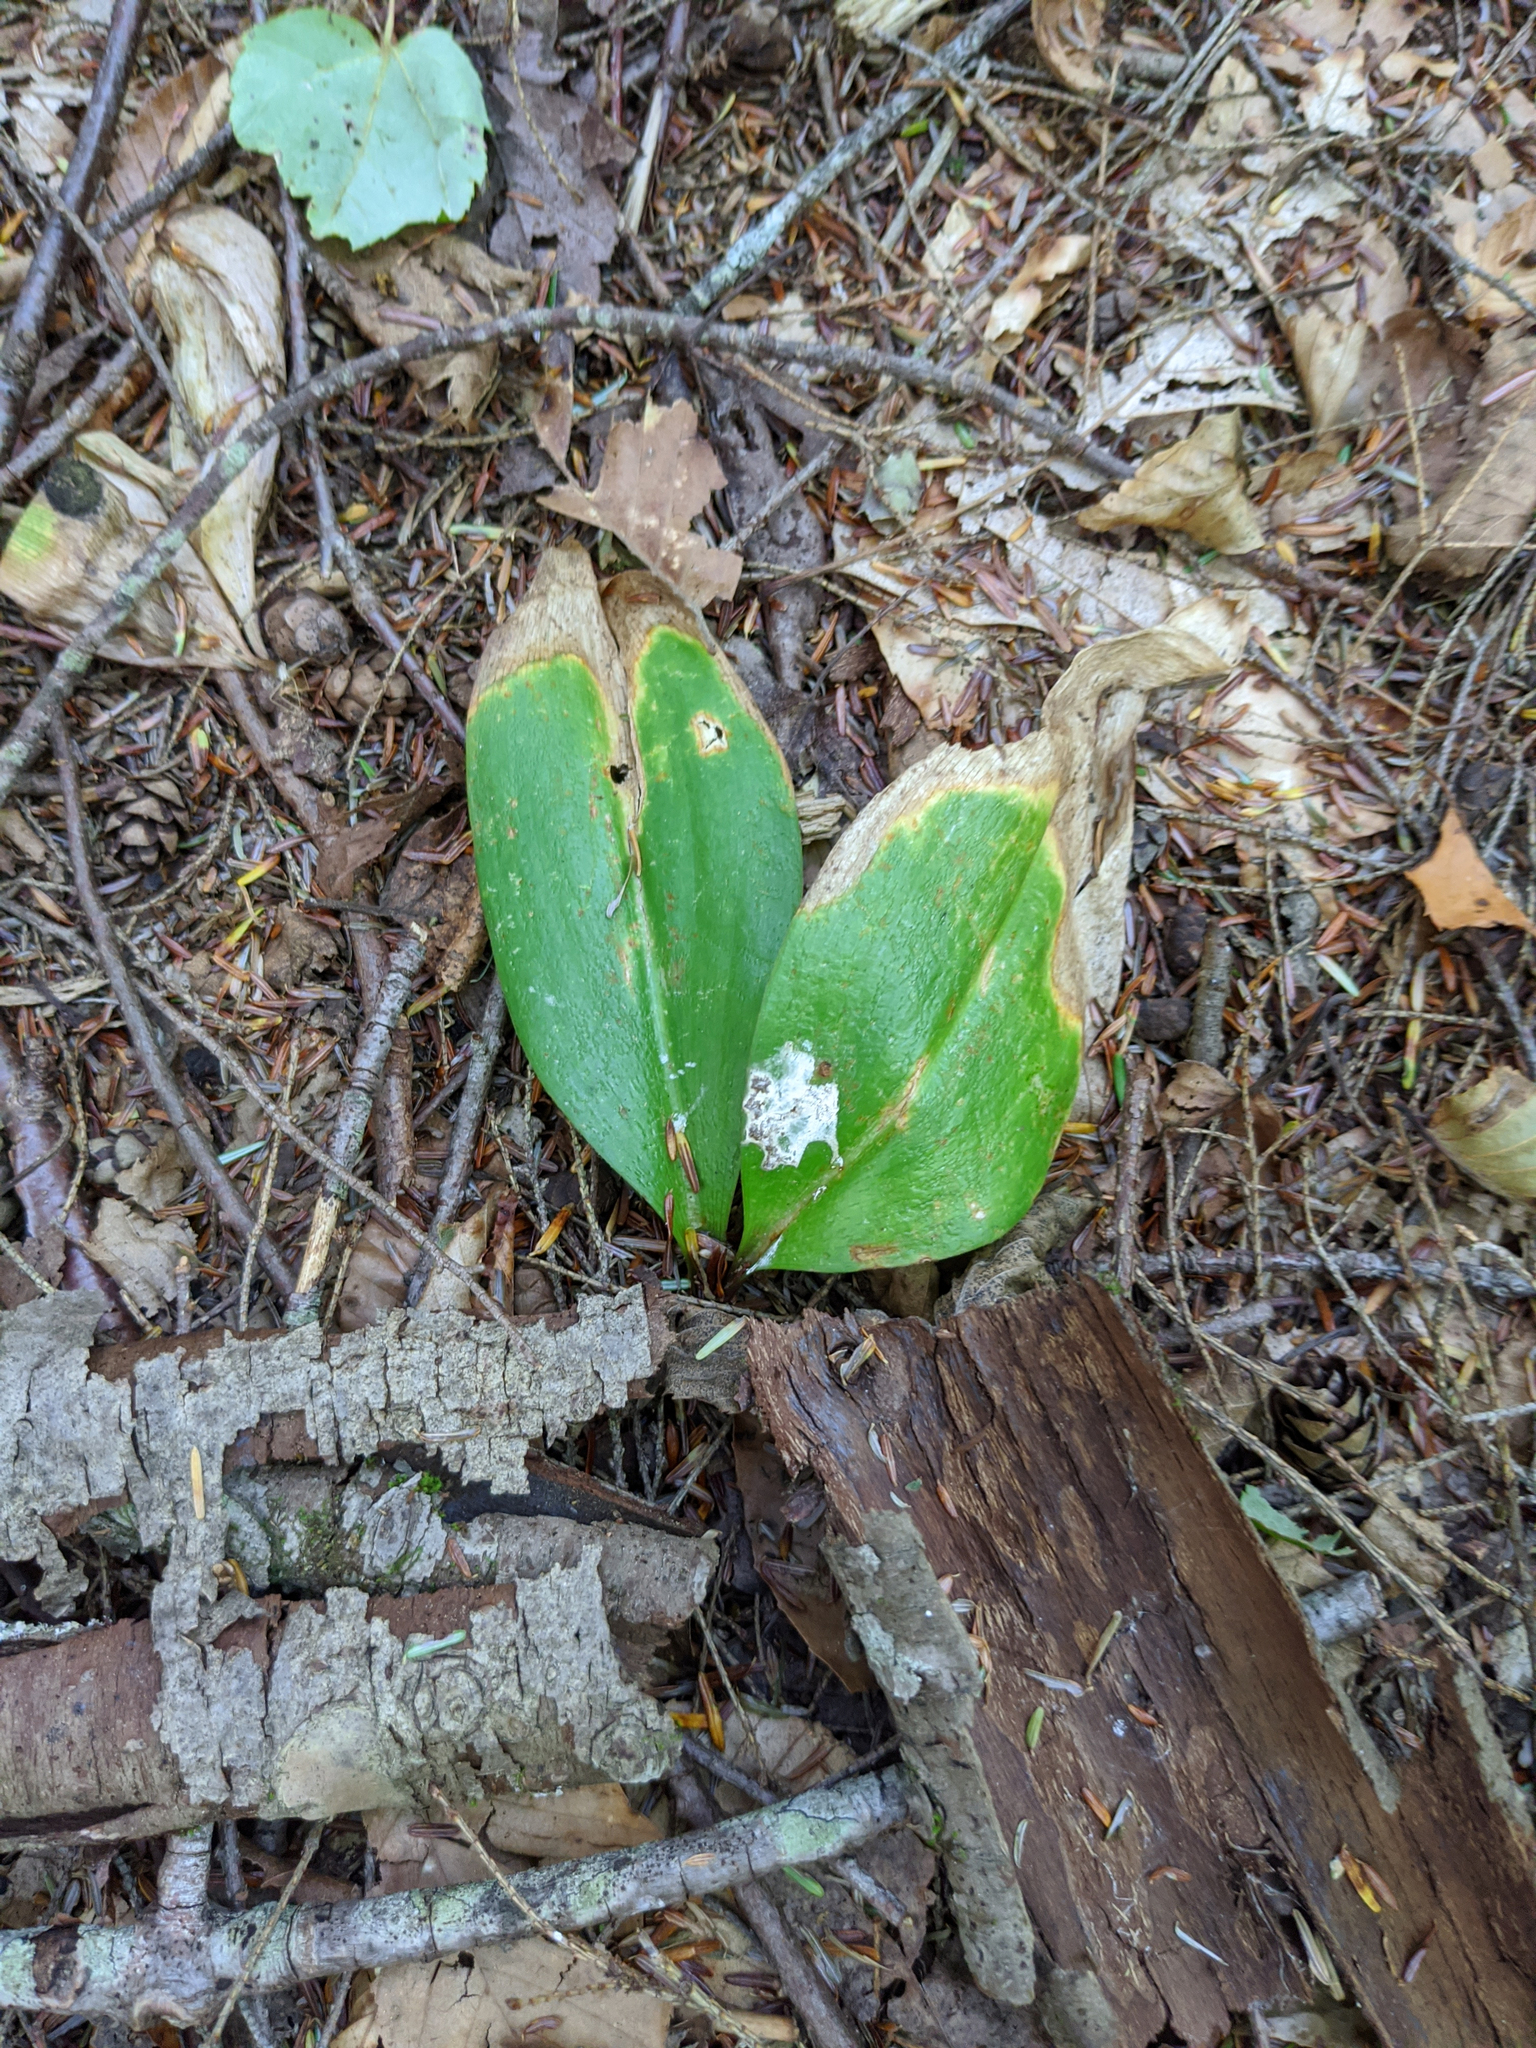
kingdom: Plantae
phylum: Tracheophyta
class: Magnoliopsida
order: Ericales
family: Ericaceae
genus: Gaultheria
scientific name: Gaultheria procumbens
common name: Checkerberry
